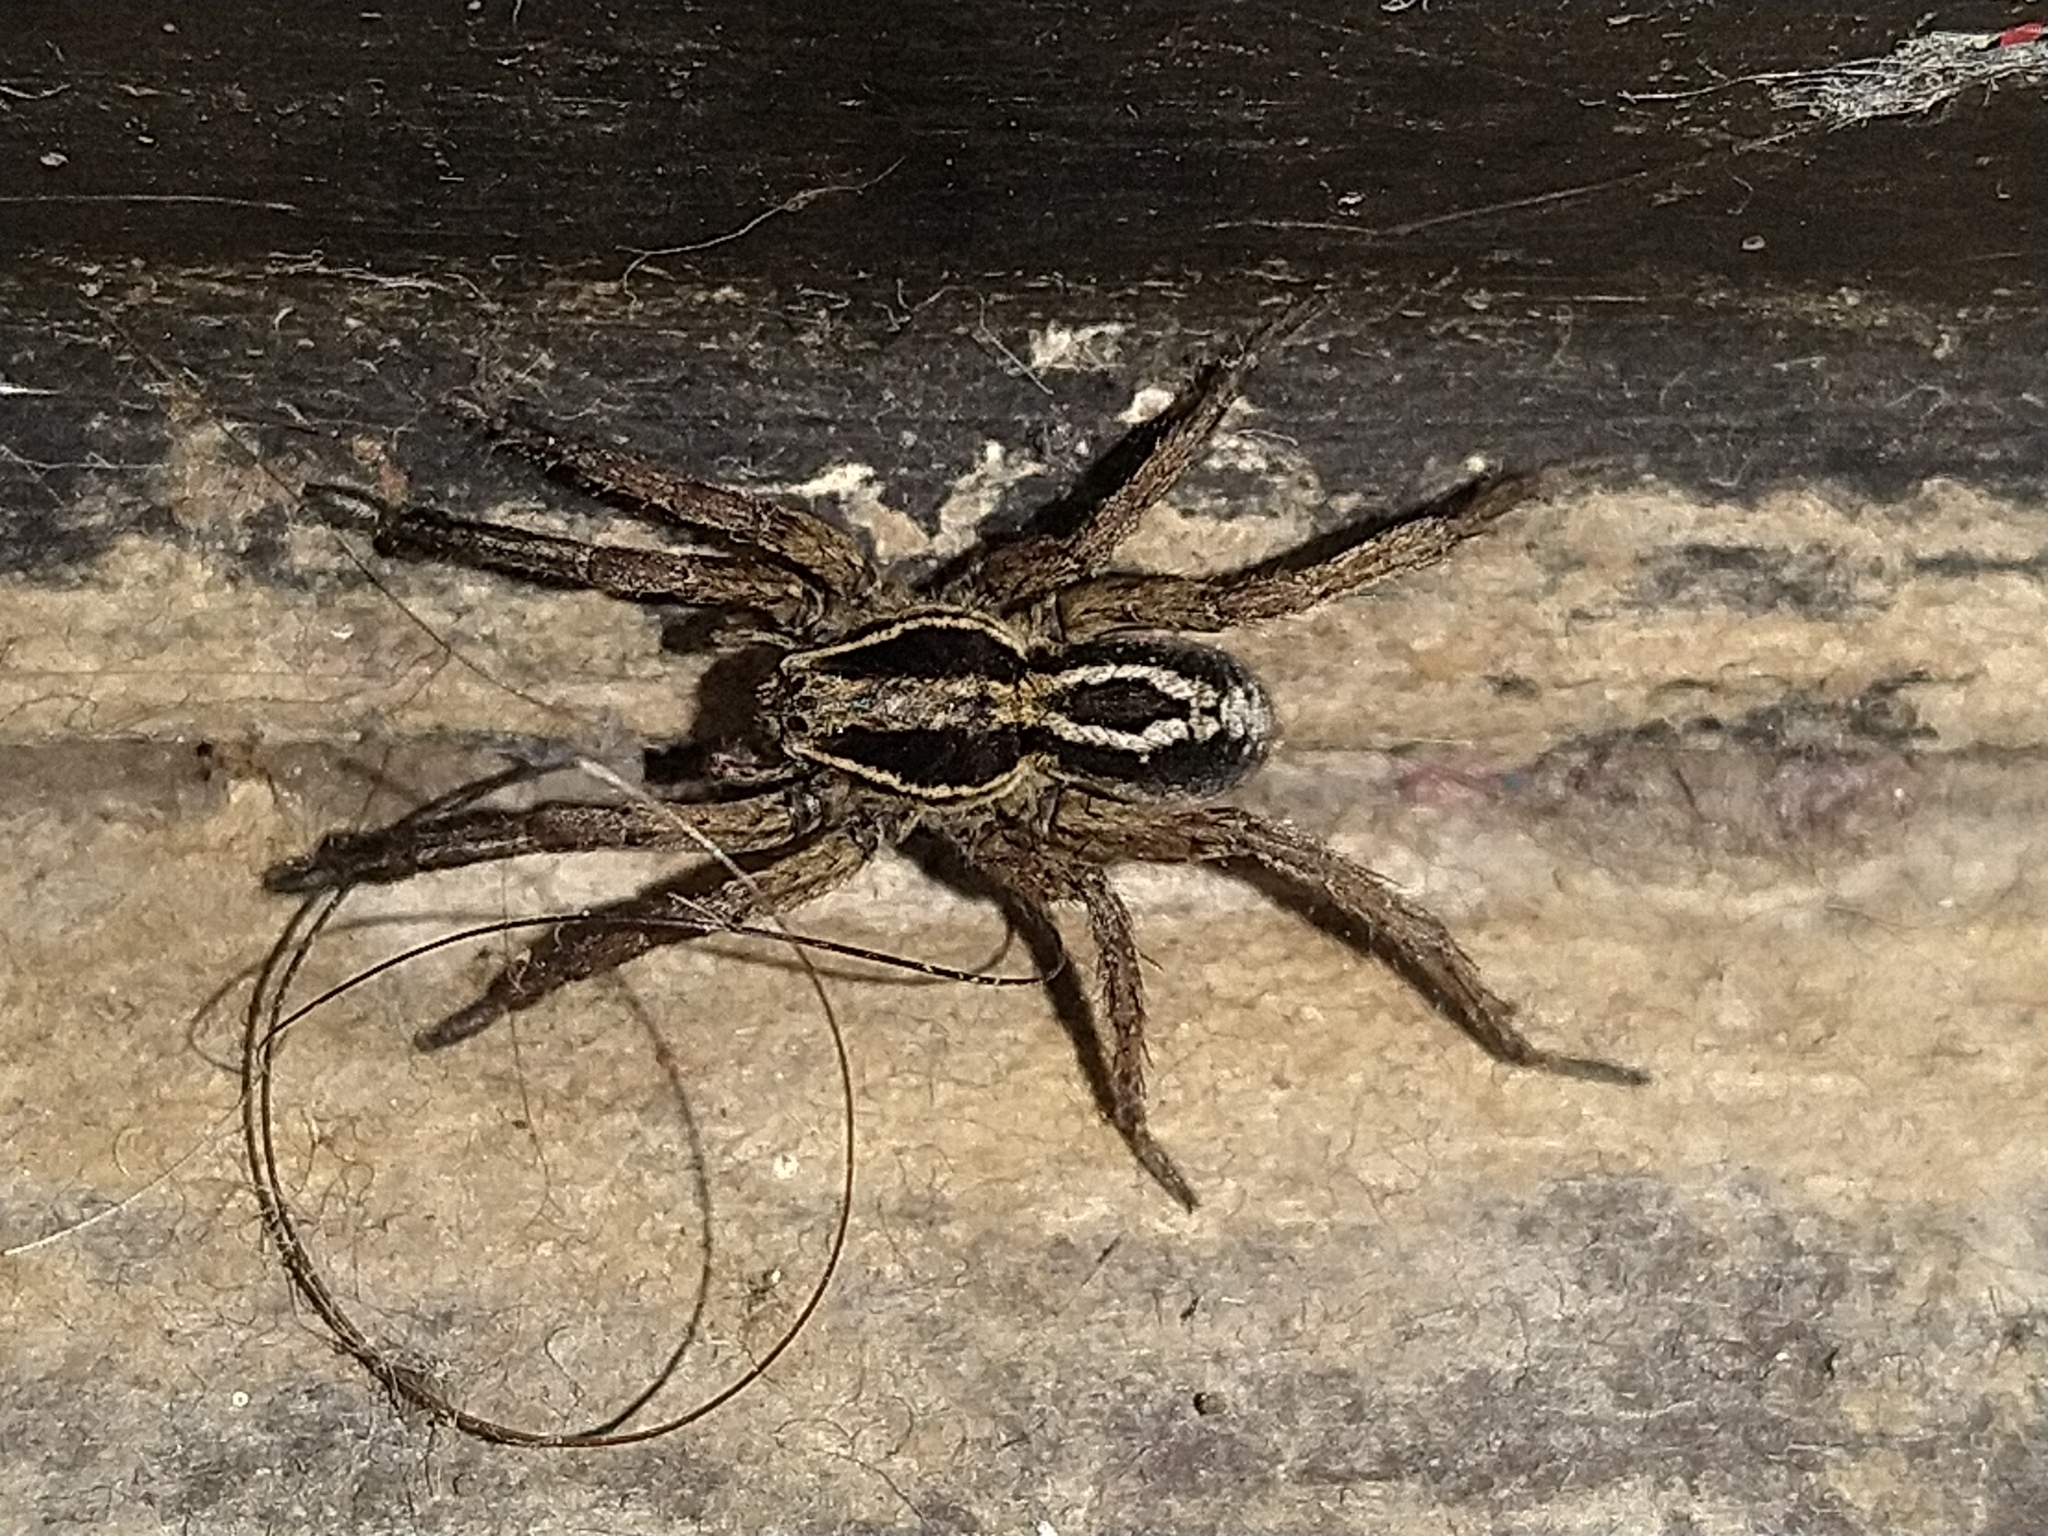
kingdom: Animalia
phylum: Arthropoda
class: Arachnida
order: Araneae
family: Lycosidae
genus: Alopecosa
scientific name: Alopecosa nigricans
